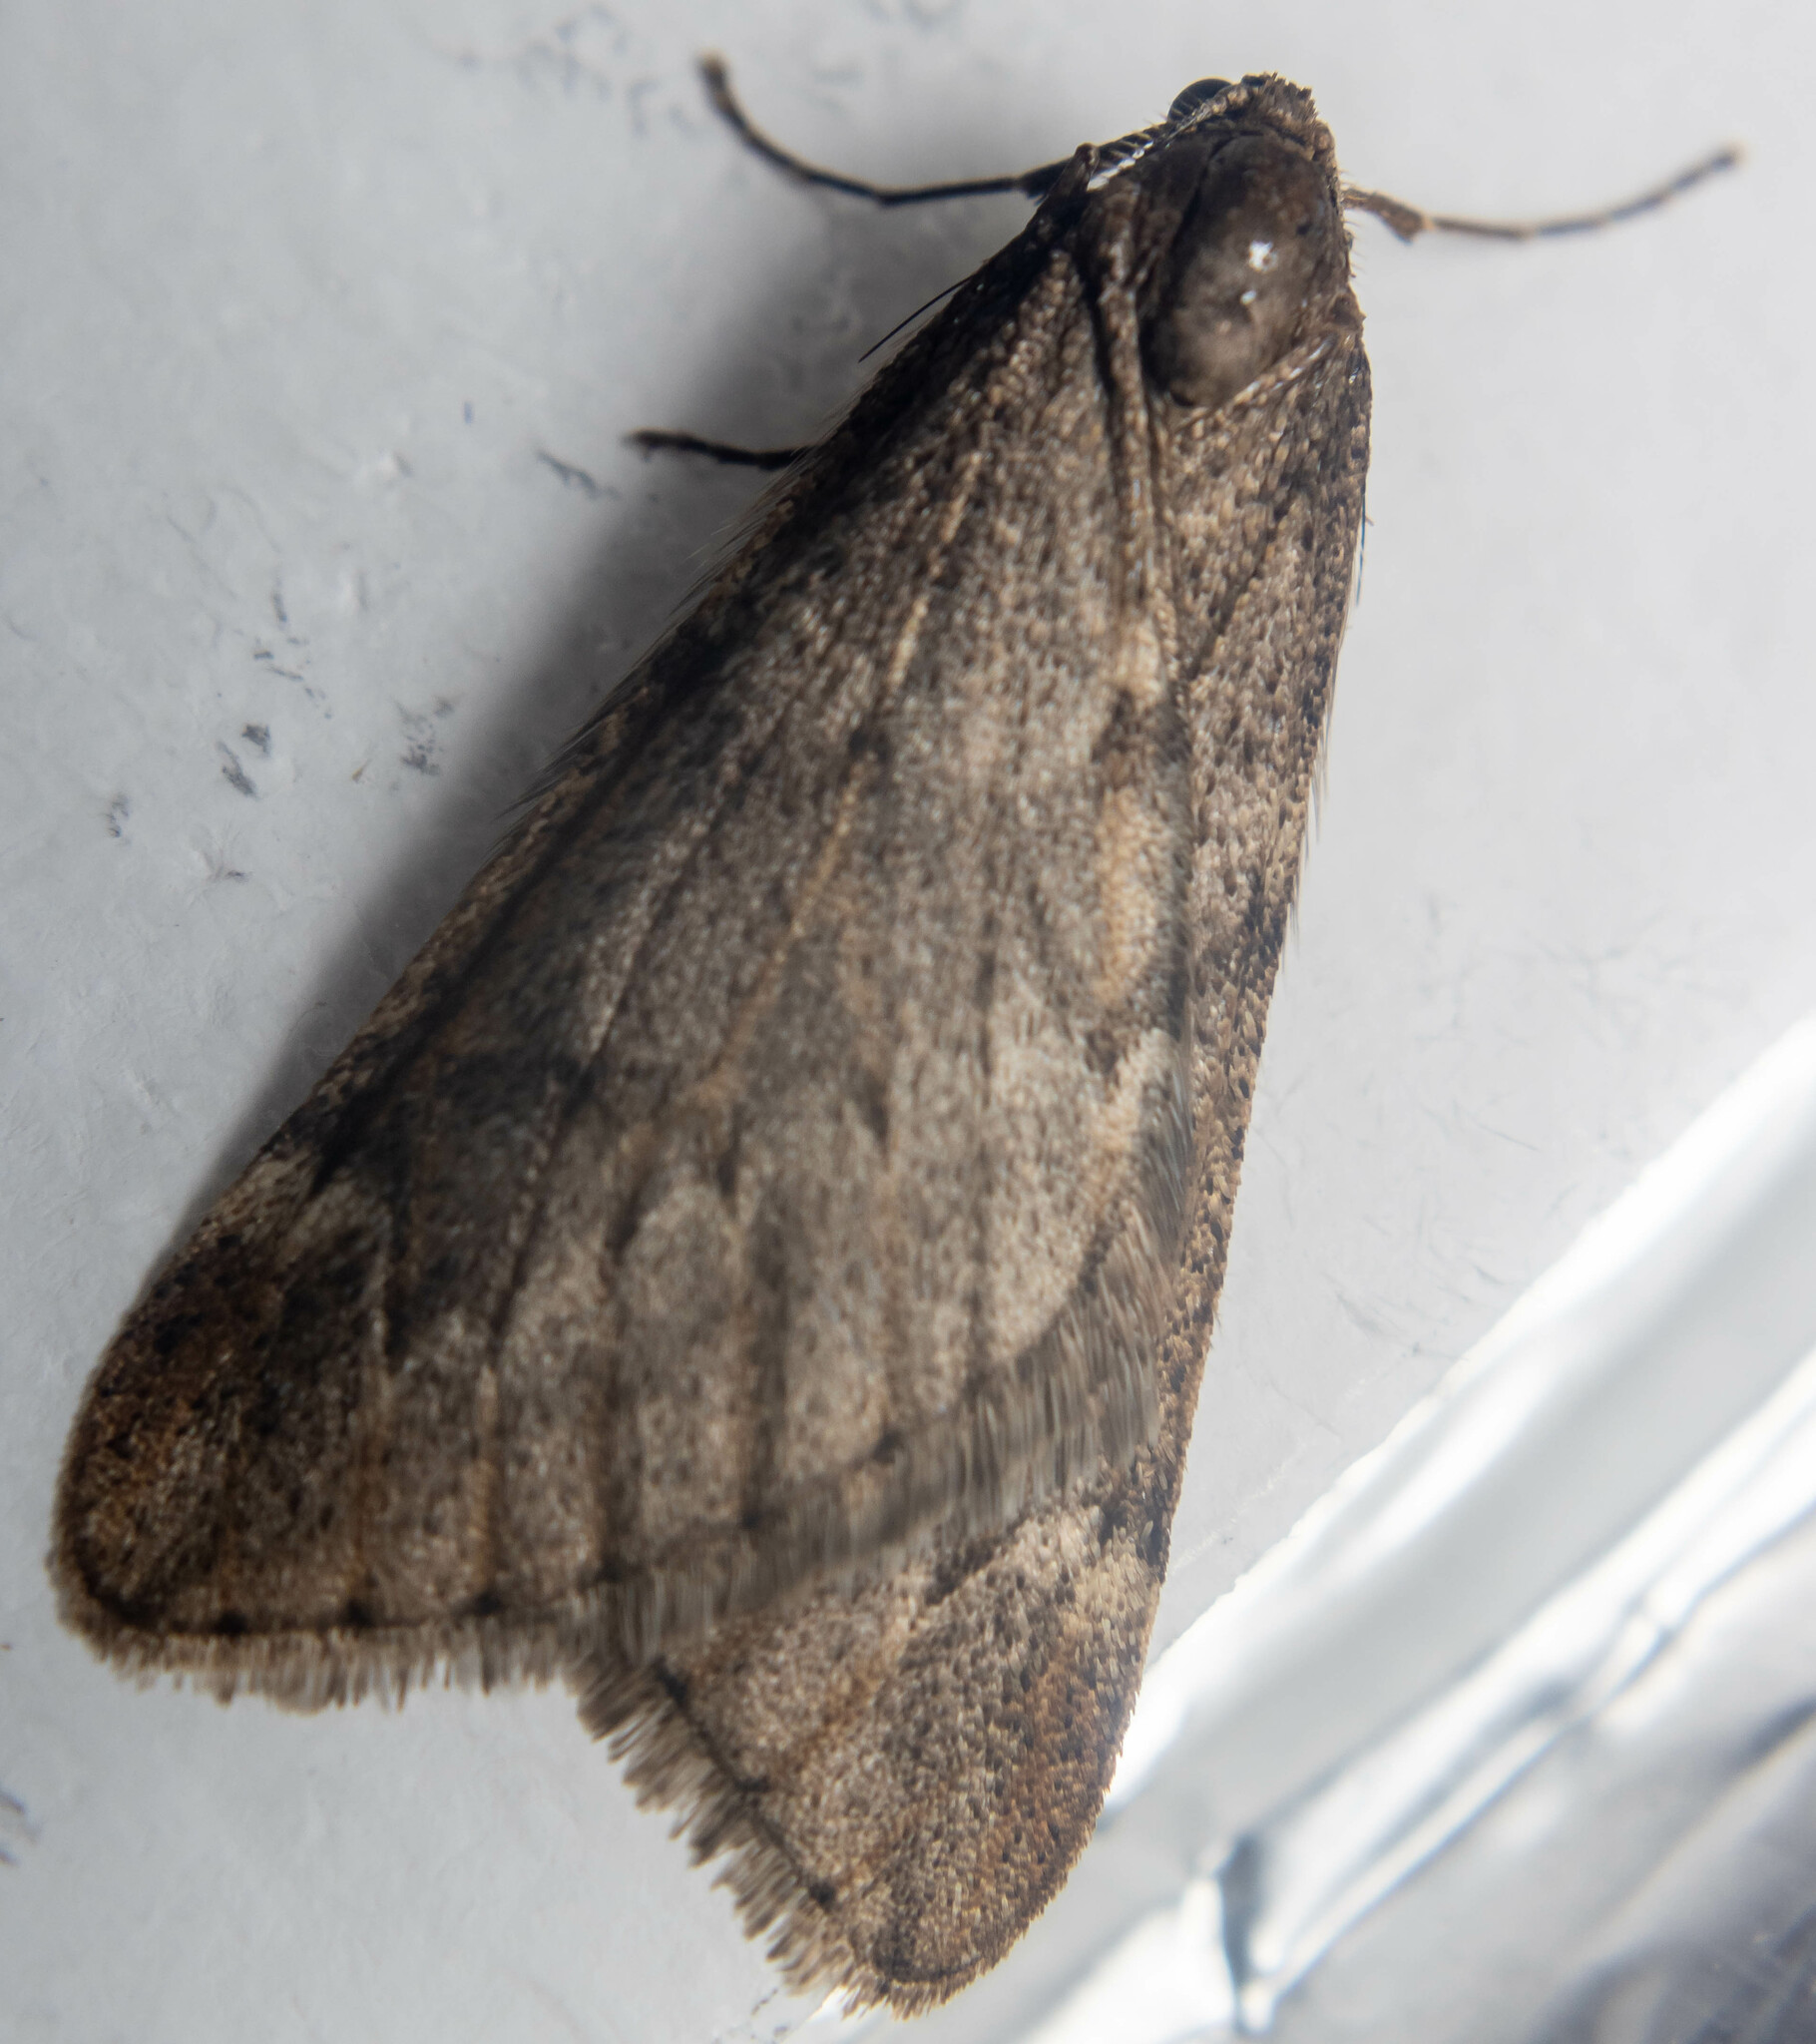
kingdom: Animalia
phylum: Arthropoda
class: Insecta
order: Lepidoptera
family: Geometridae
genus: Alsophila
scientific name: Alsophila aescularia
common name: March moth
